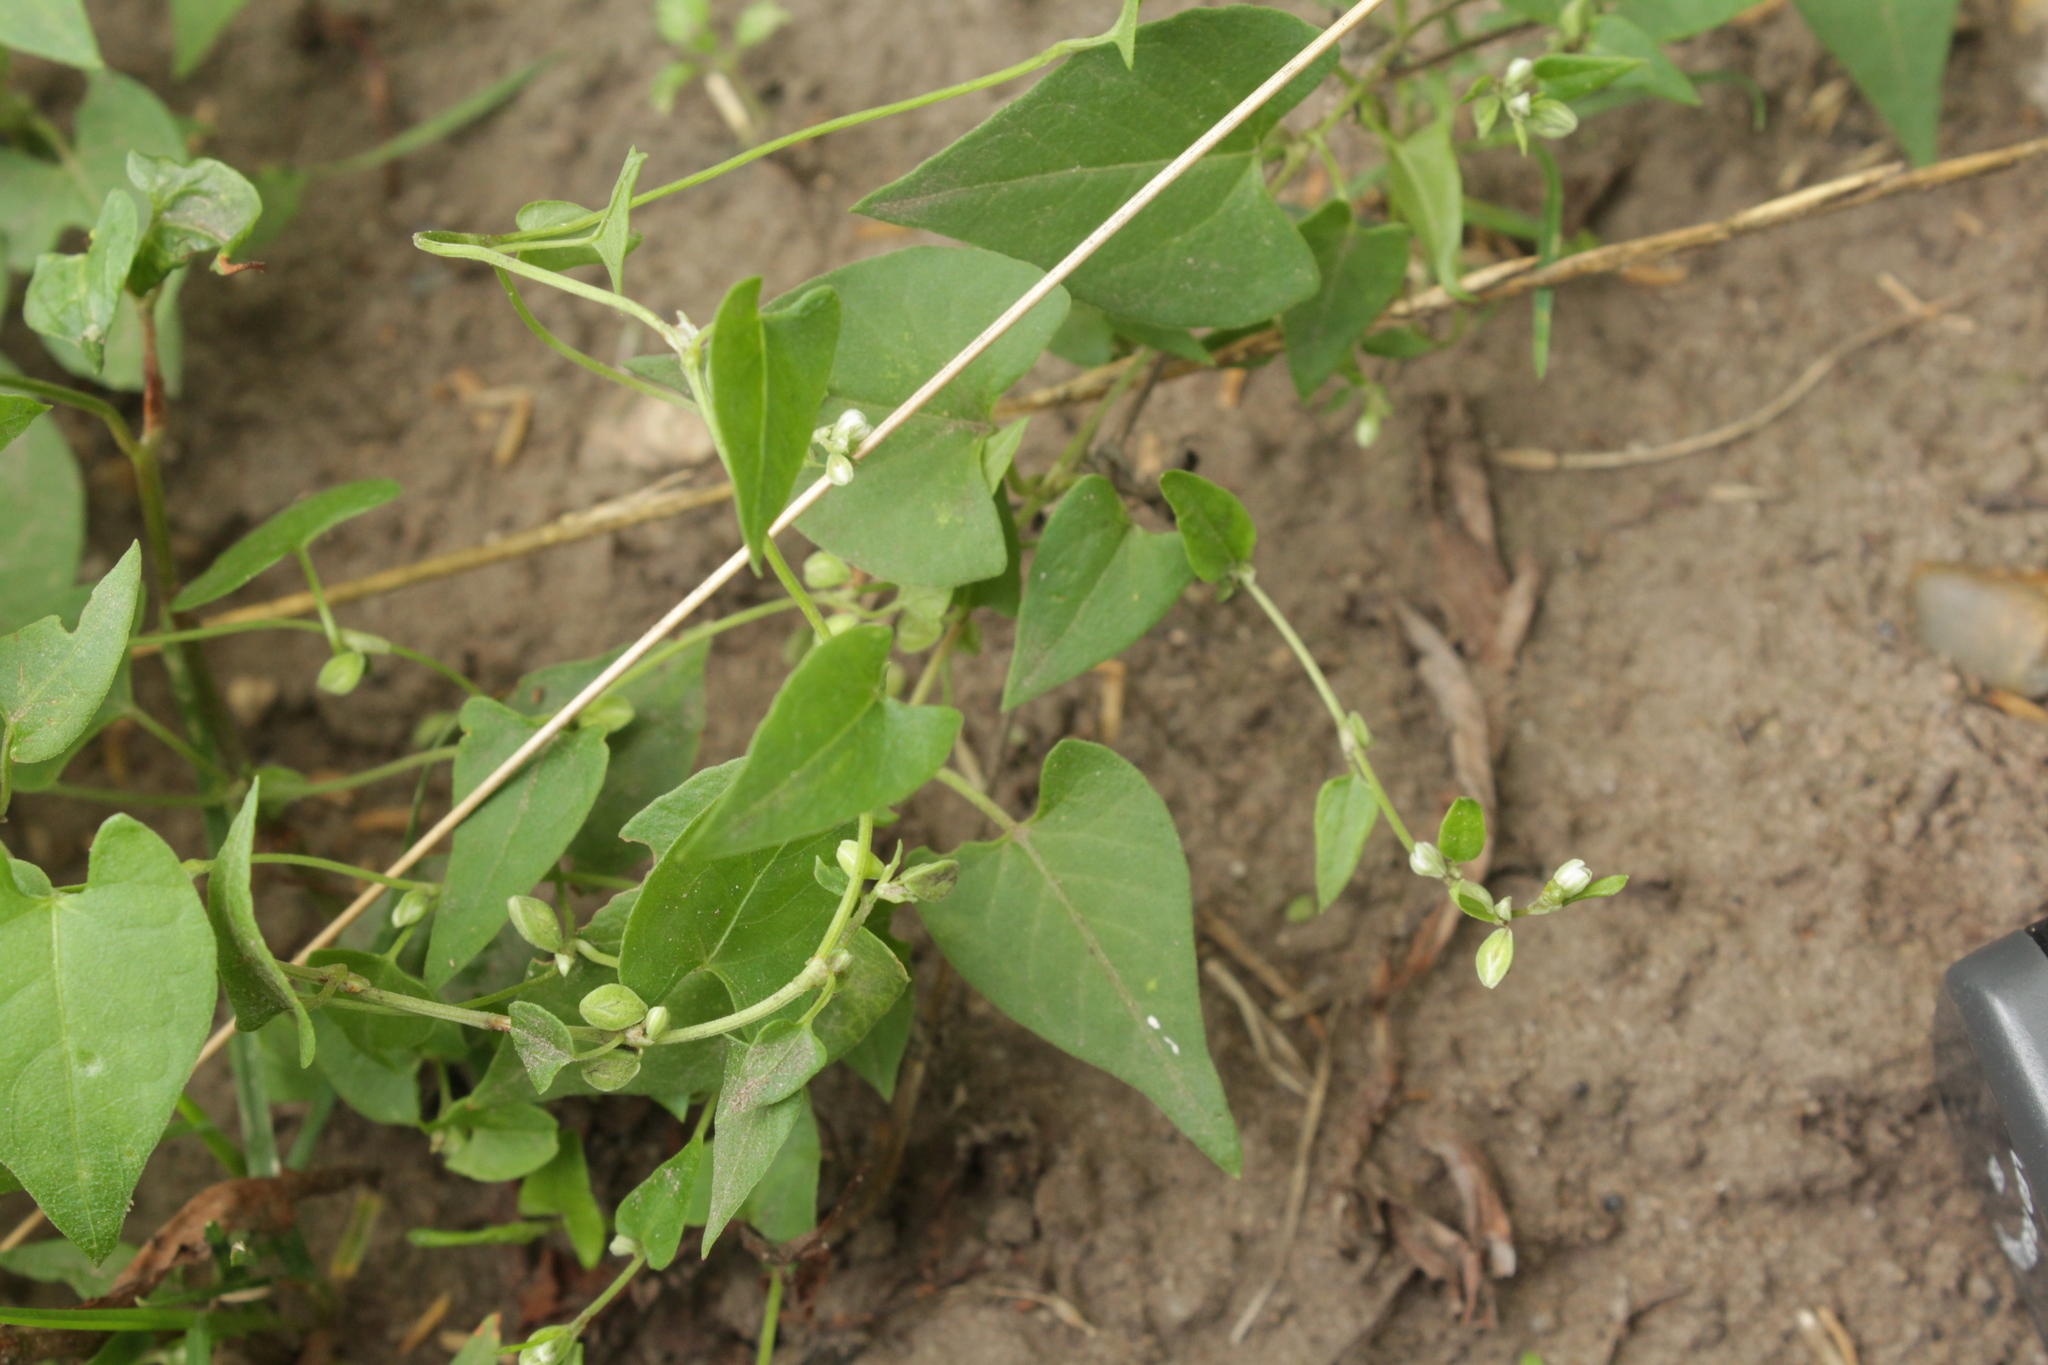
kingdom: Plantae
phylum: Tracheophyta
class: Magnoliopsida
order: Caryophyllales
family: Polygonaceae
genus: Fallopia
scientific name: Fallopia convolvulus
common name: Black bindweed
